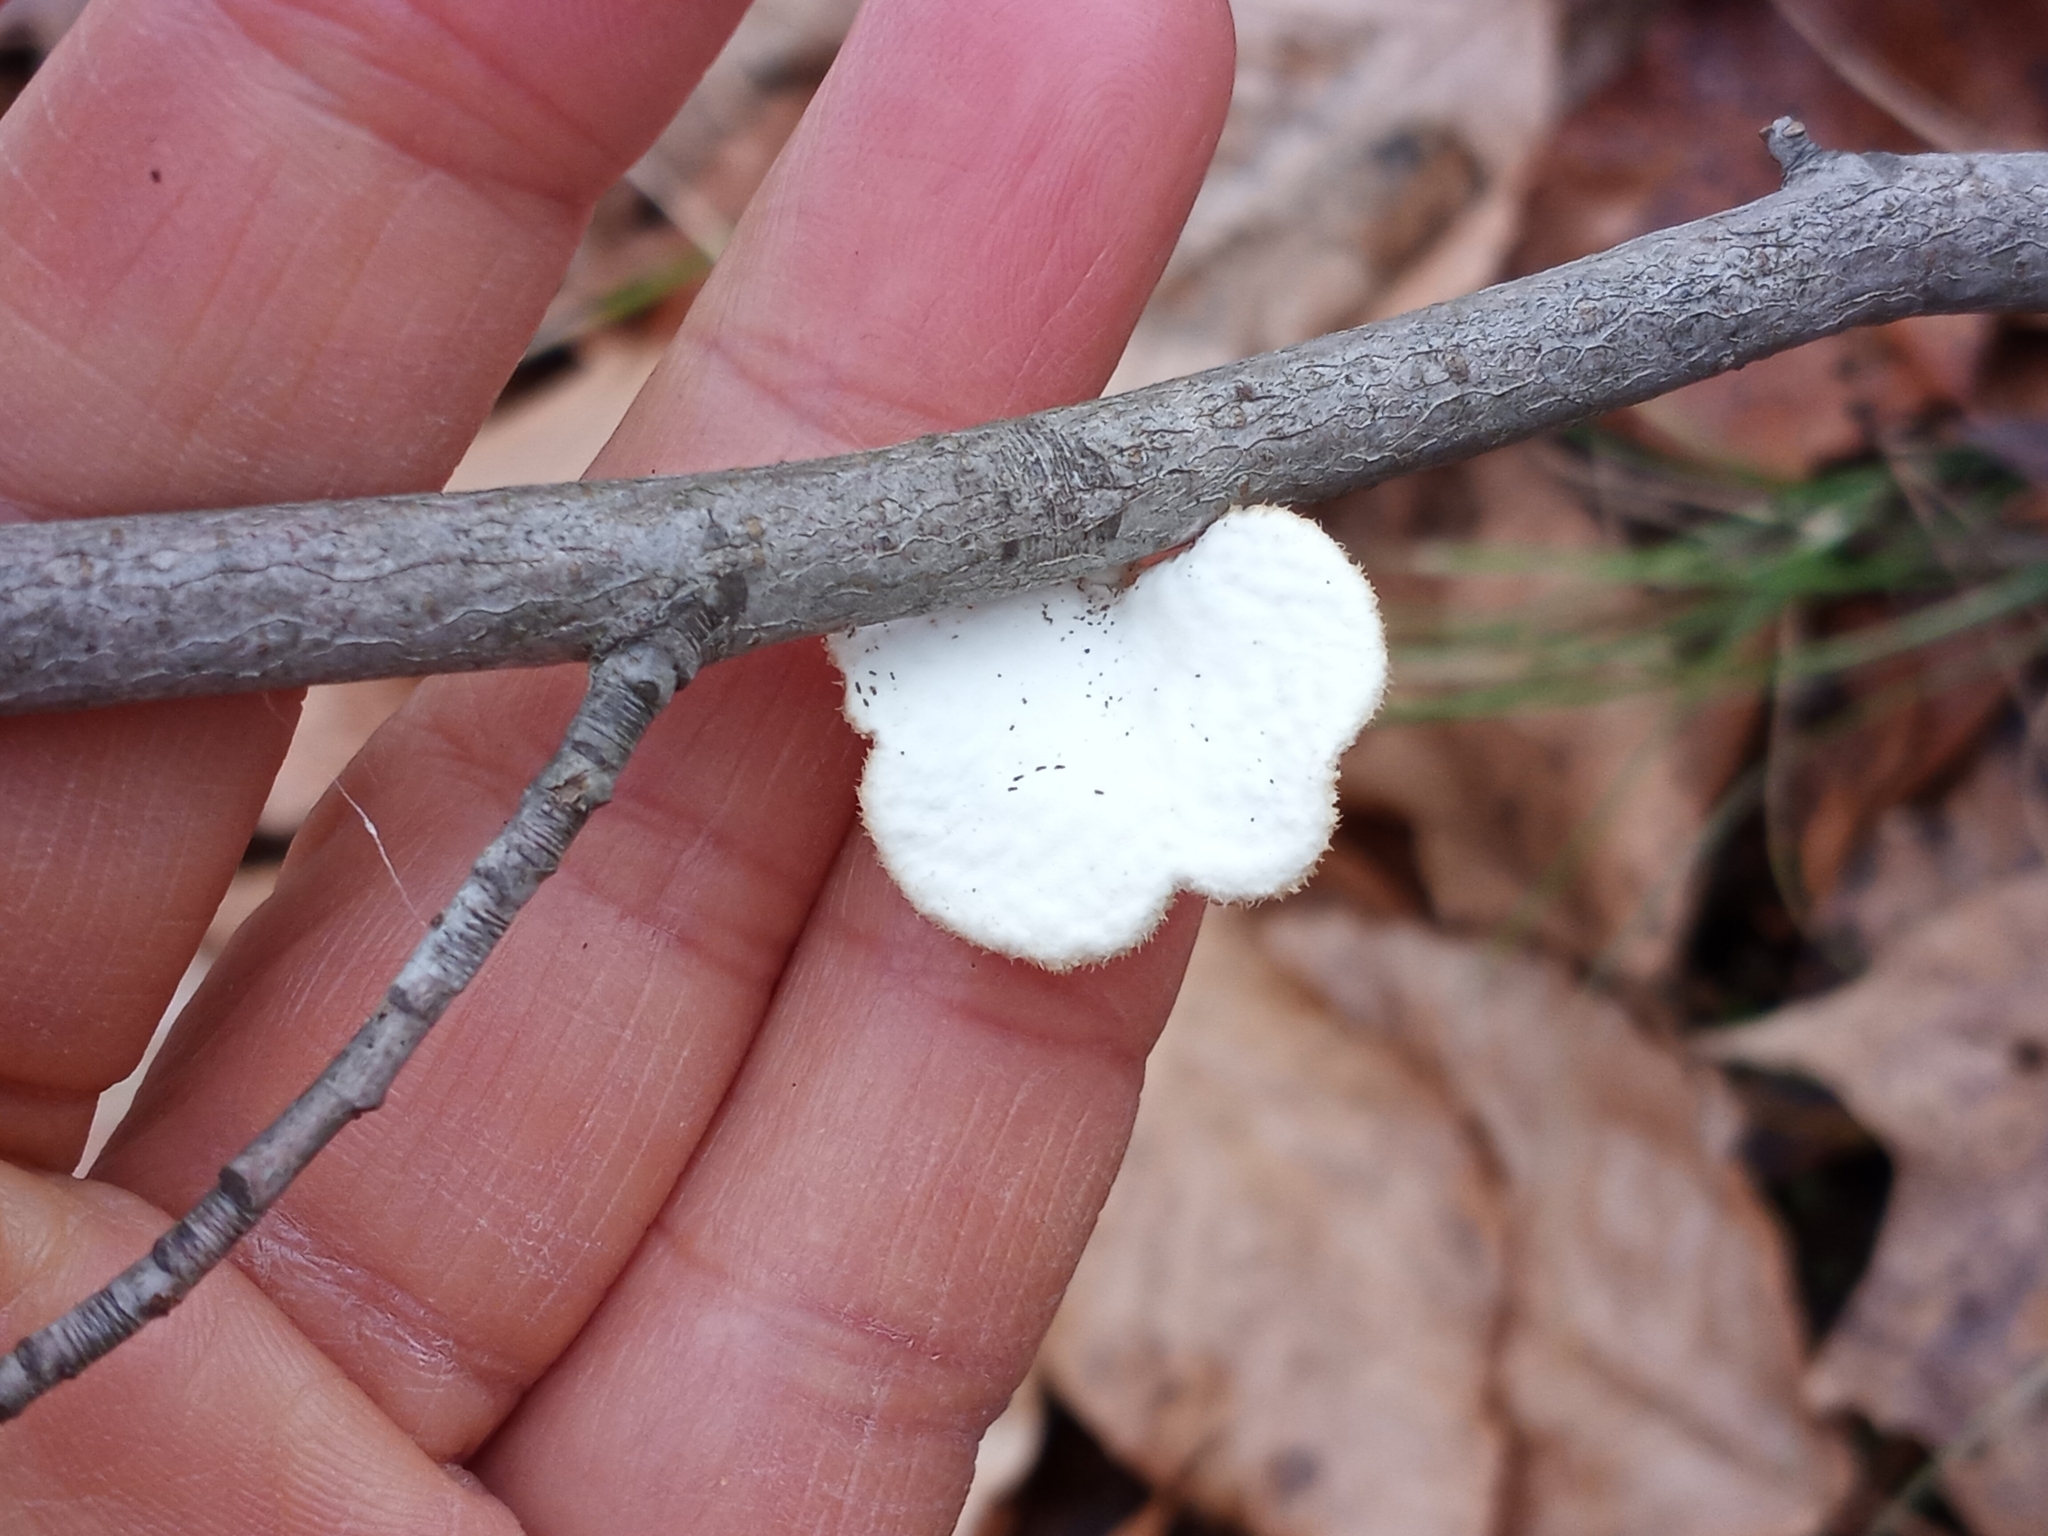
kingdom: Fungi
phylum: Basidiomycota
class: Agaricomycetes
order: Polyporales
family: Polyporaceae
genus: Neofavolus
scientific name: Neofavolus alveolaris
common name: Hexagonal-pored polypore
